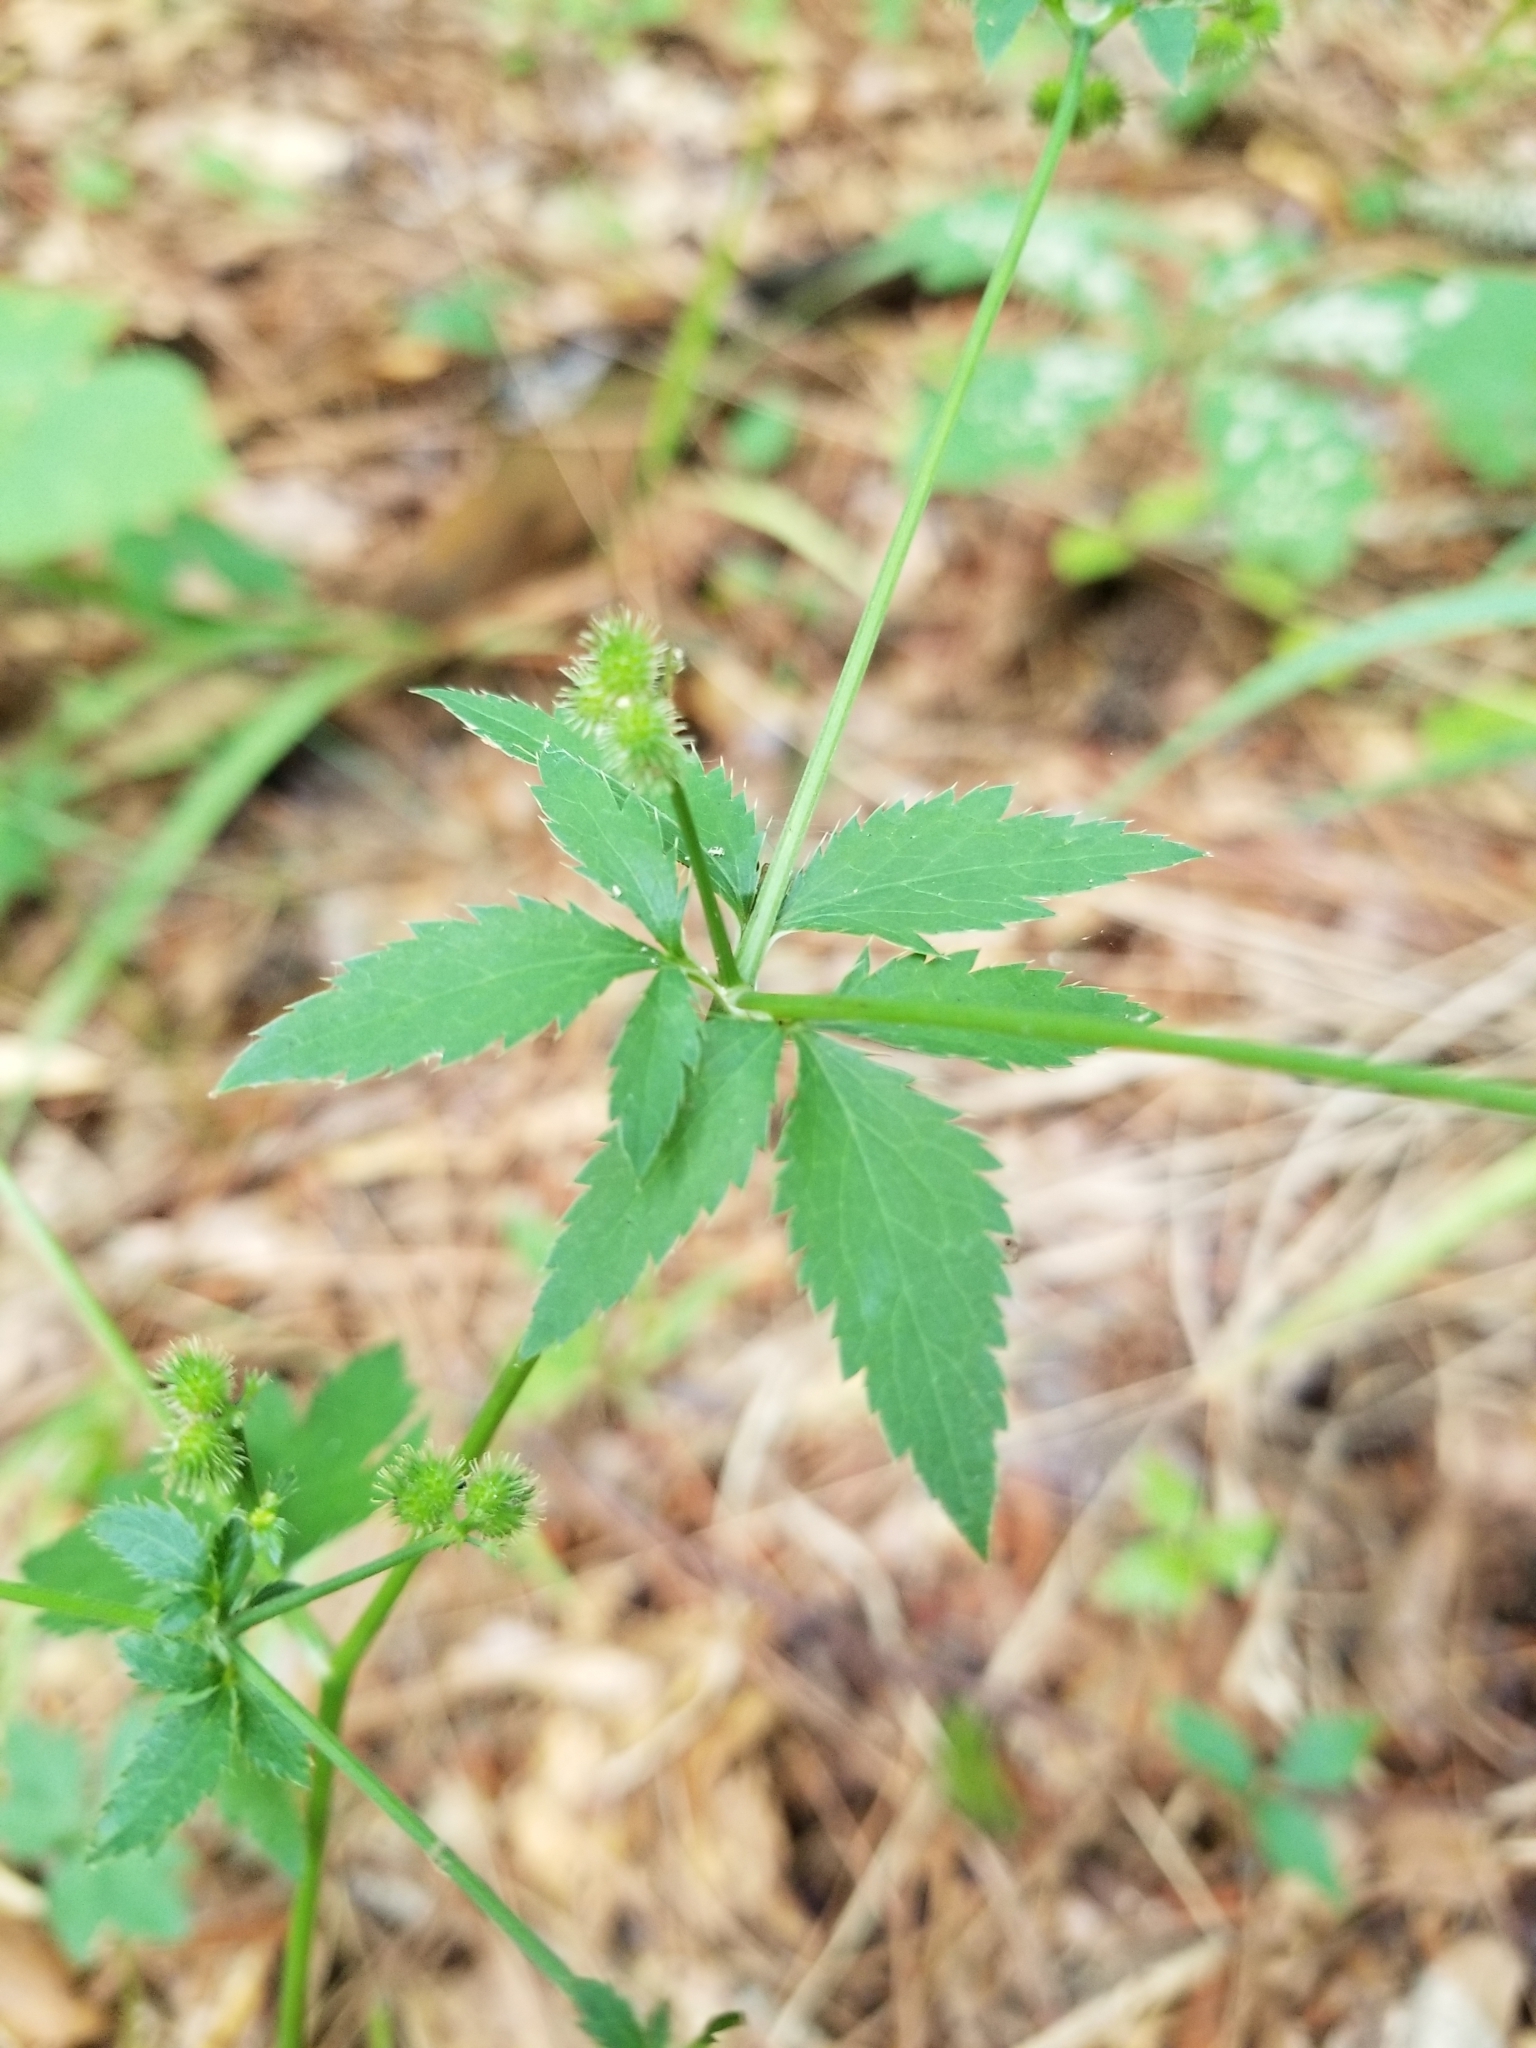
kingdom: Plantae
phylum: Tracheophyta
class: Magnoliopsida
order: Apiales
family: Apiaceae
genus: Sanicula
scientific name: Sanicula canadensis
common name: Canada sanicle
